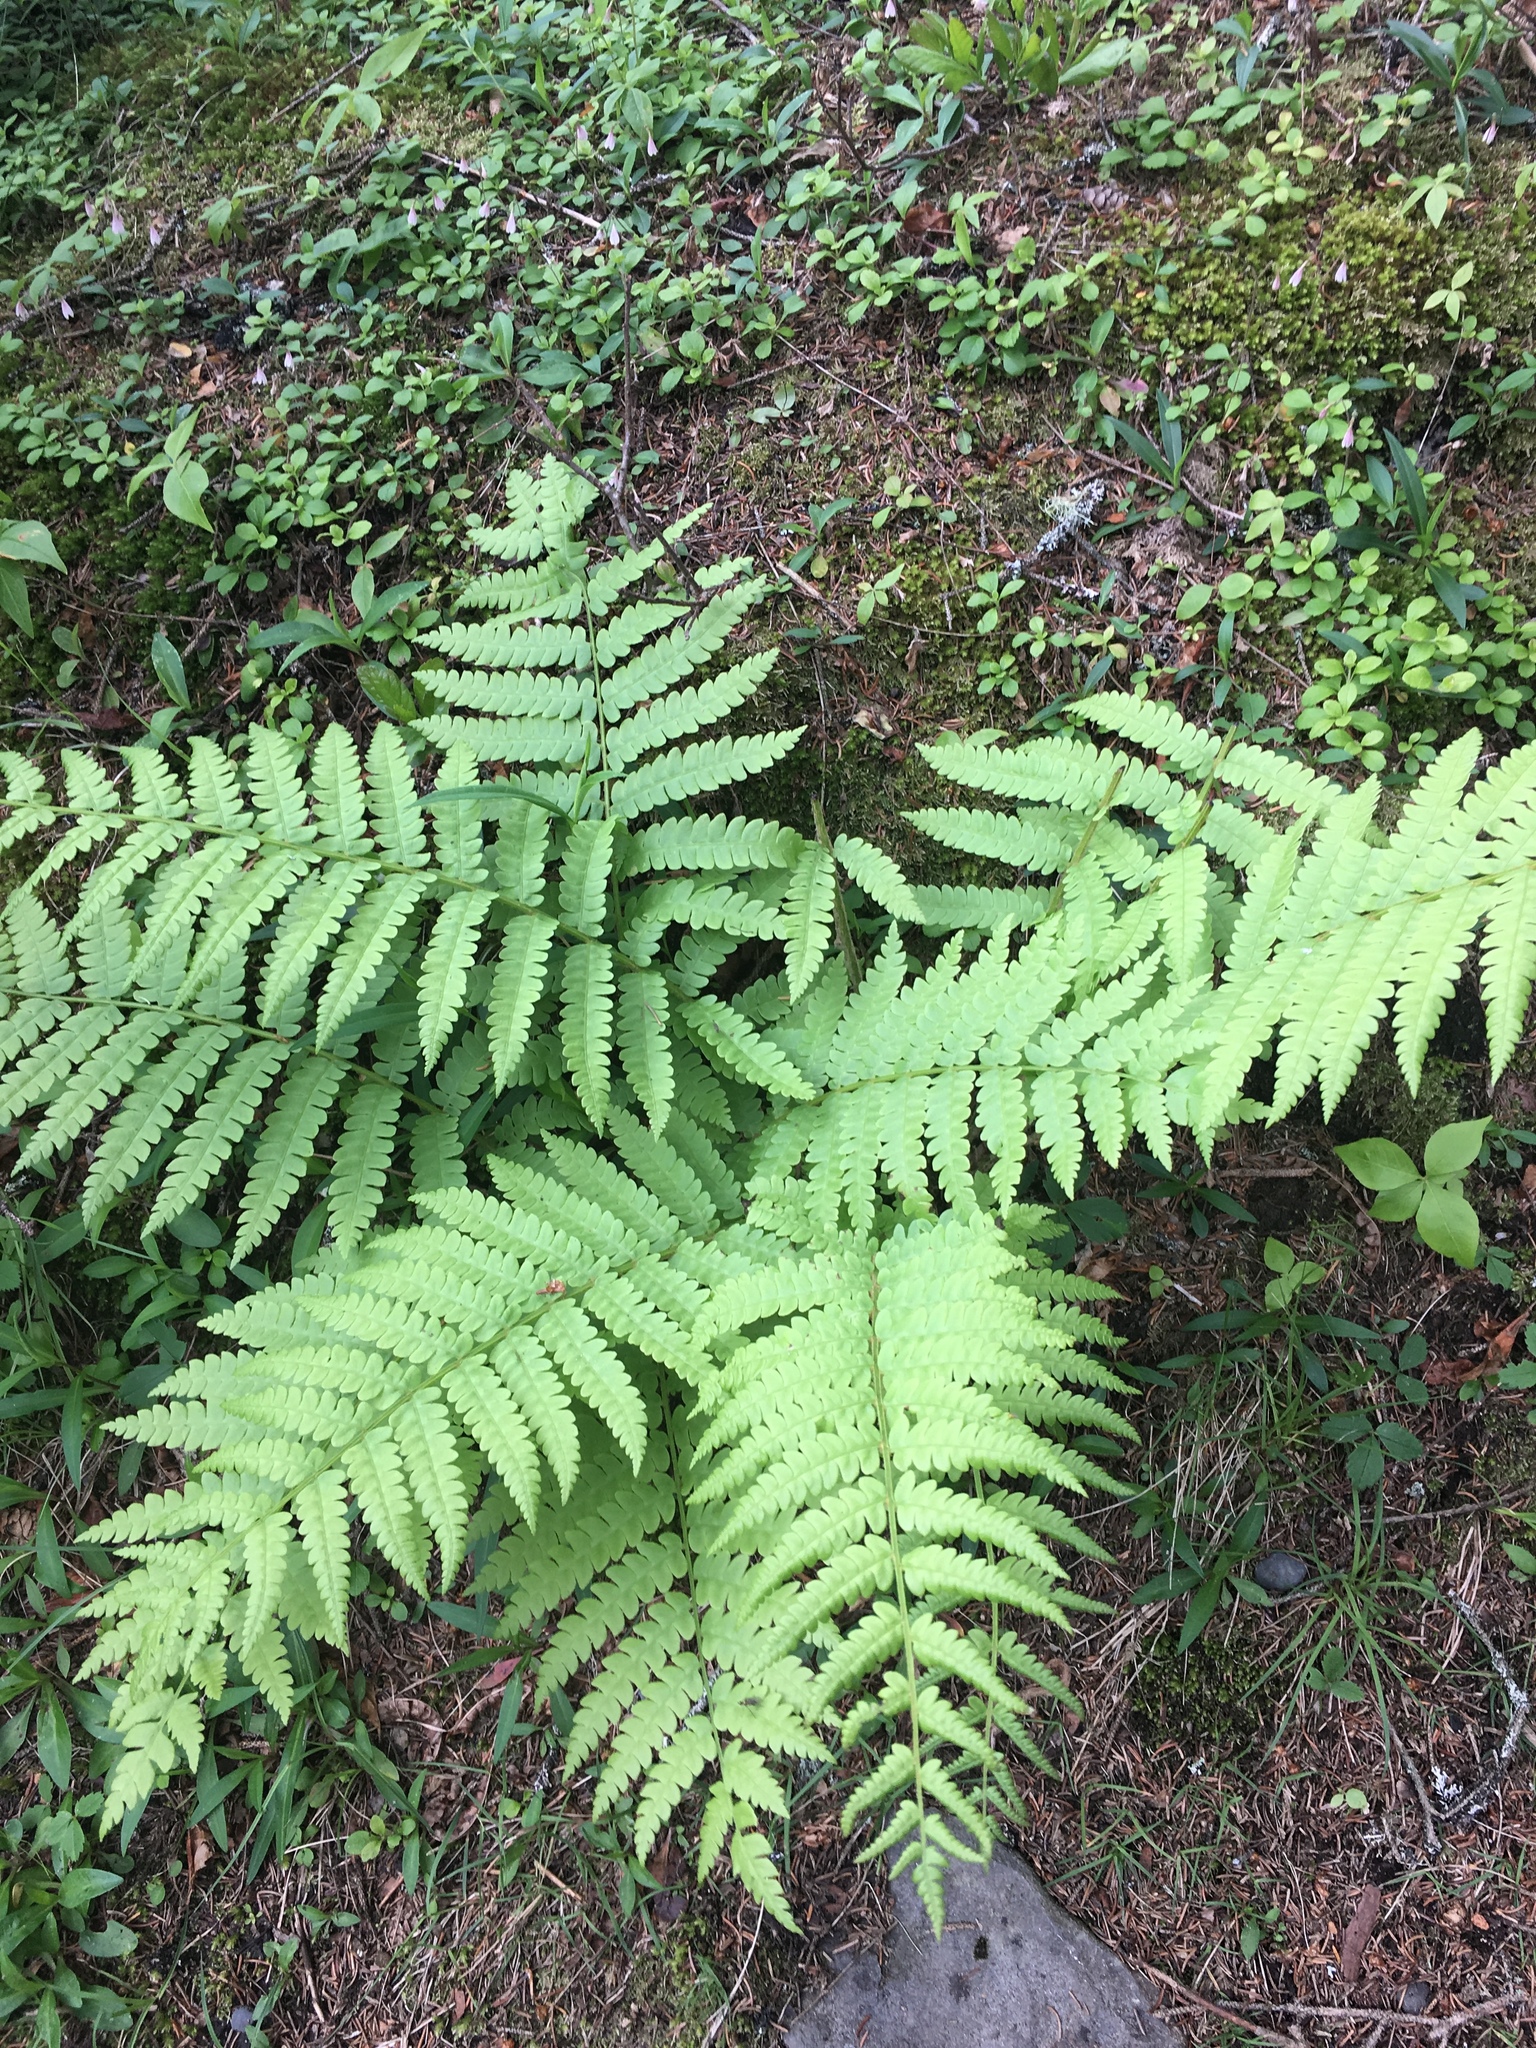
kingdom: Plantae
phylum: Tracheophyta
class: Polypodiopsida
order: Osmundales
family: Osmundaceae
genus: Osmundastrum
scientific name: Osmundastrum cinnamomeum
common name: Cinnamon fern
